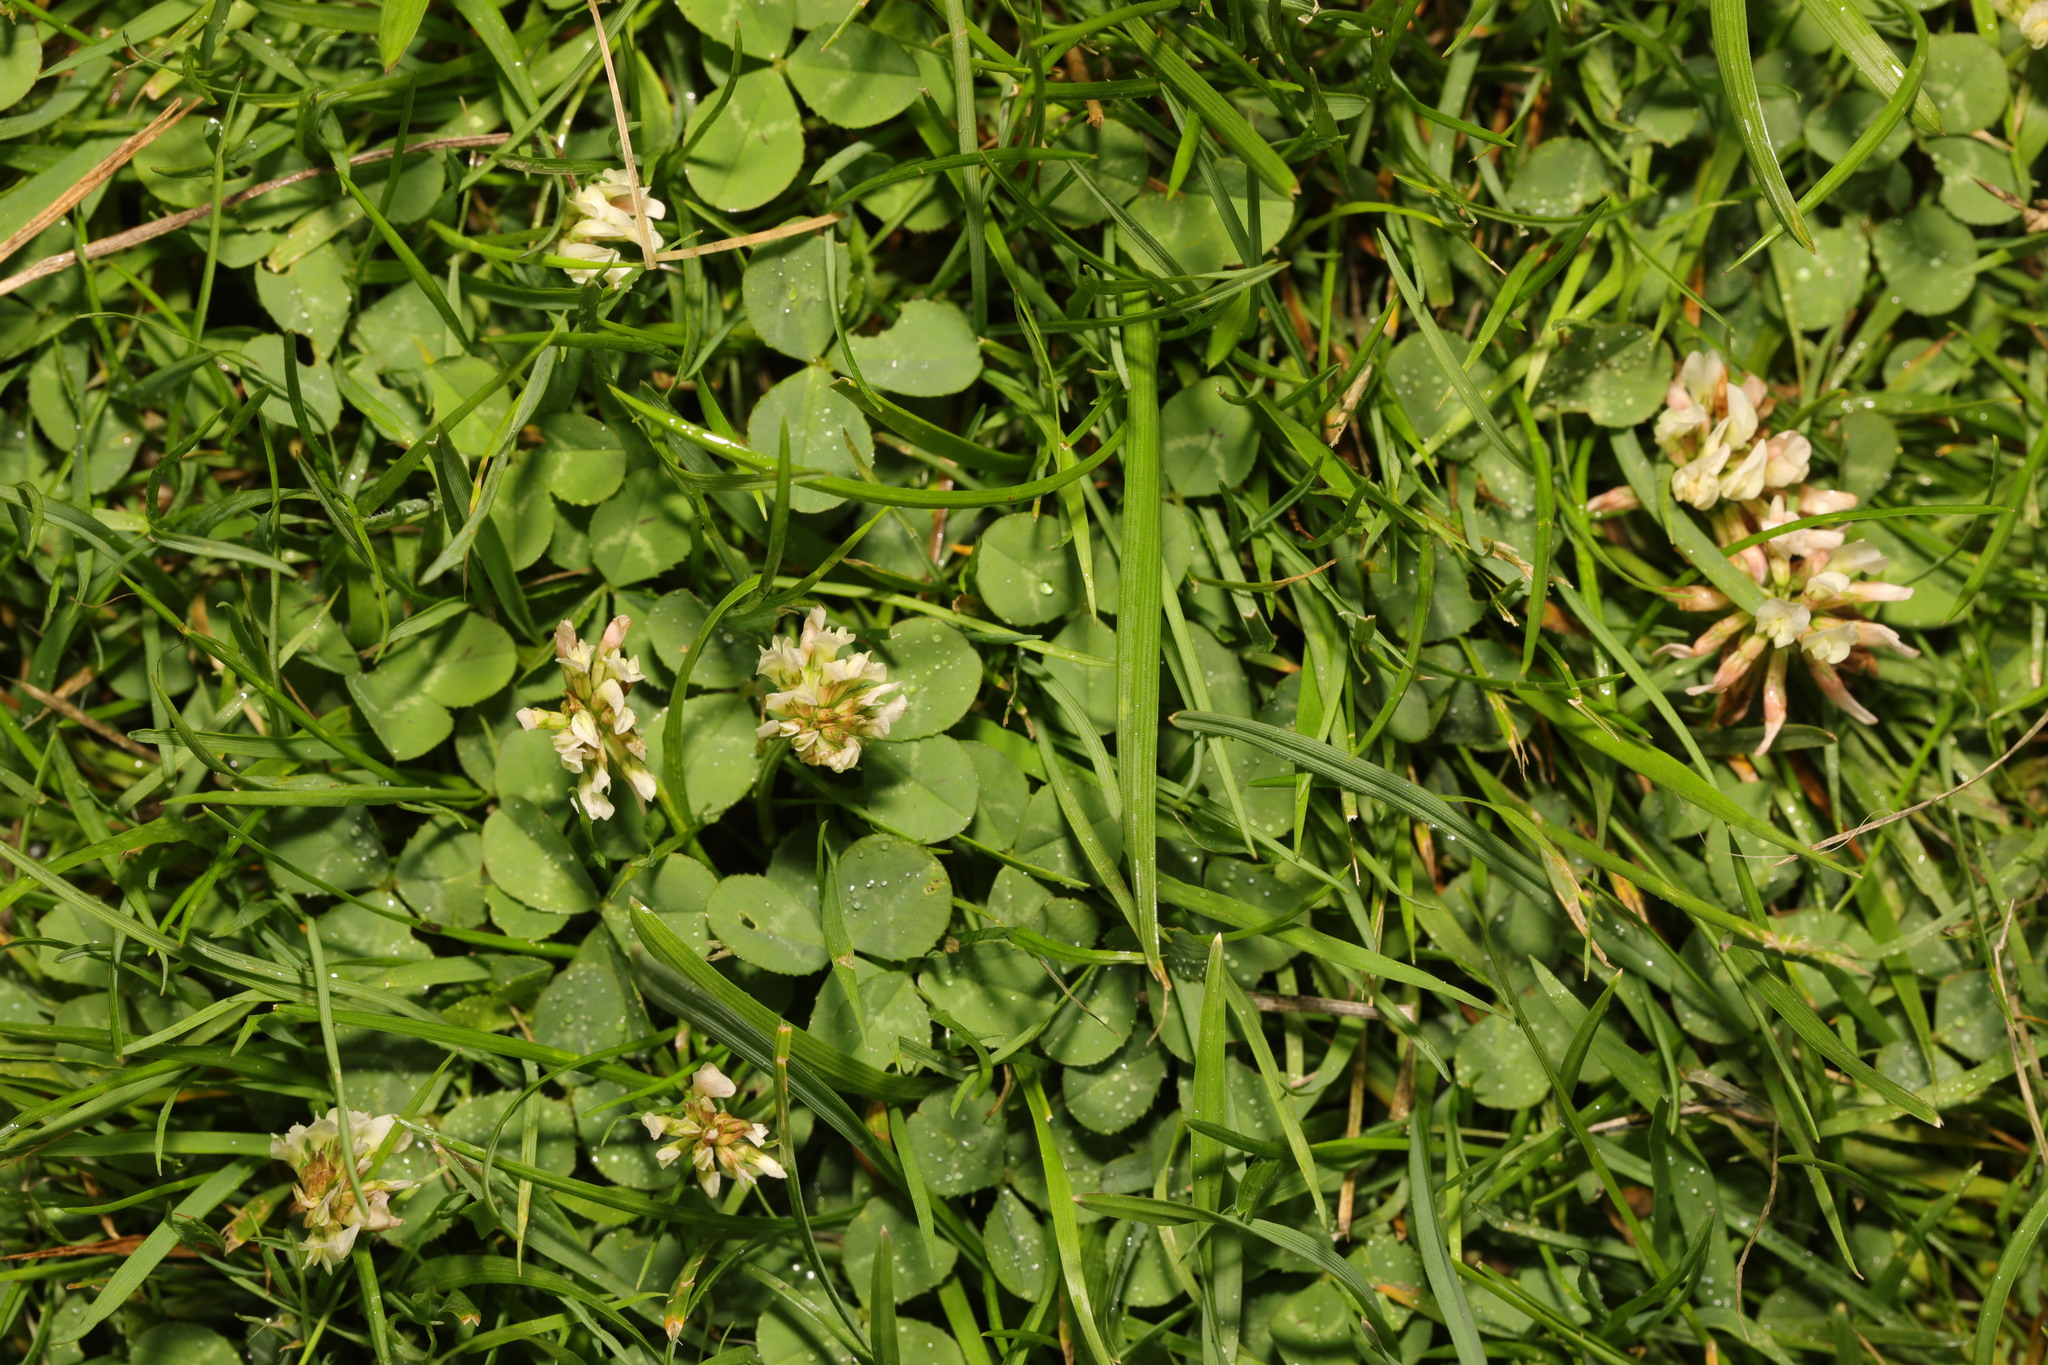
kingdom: Plantae
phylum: Tracheophyta
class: Magnoliopsida
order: Fabales
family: Fabaceae
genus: Trifolium
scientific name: Trifolium repens
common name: White clover
